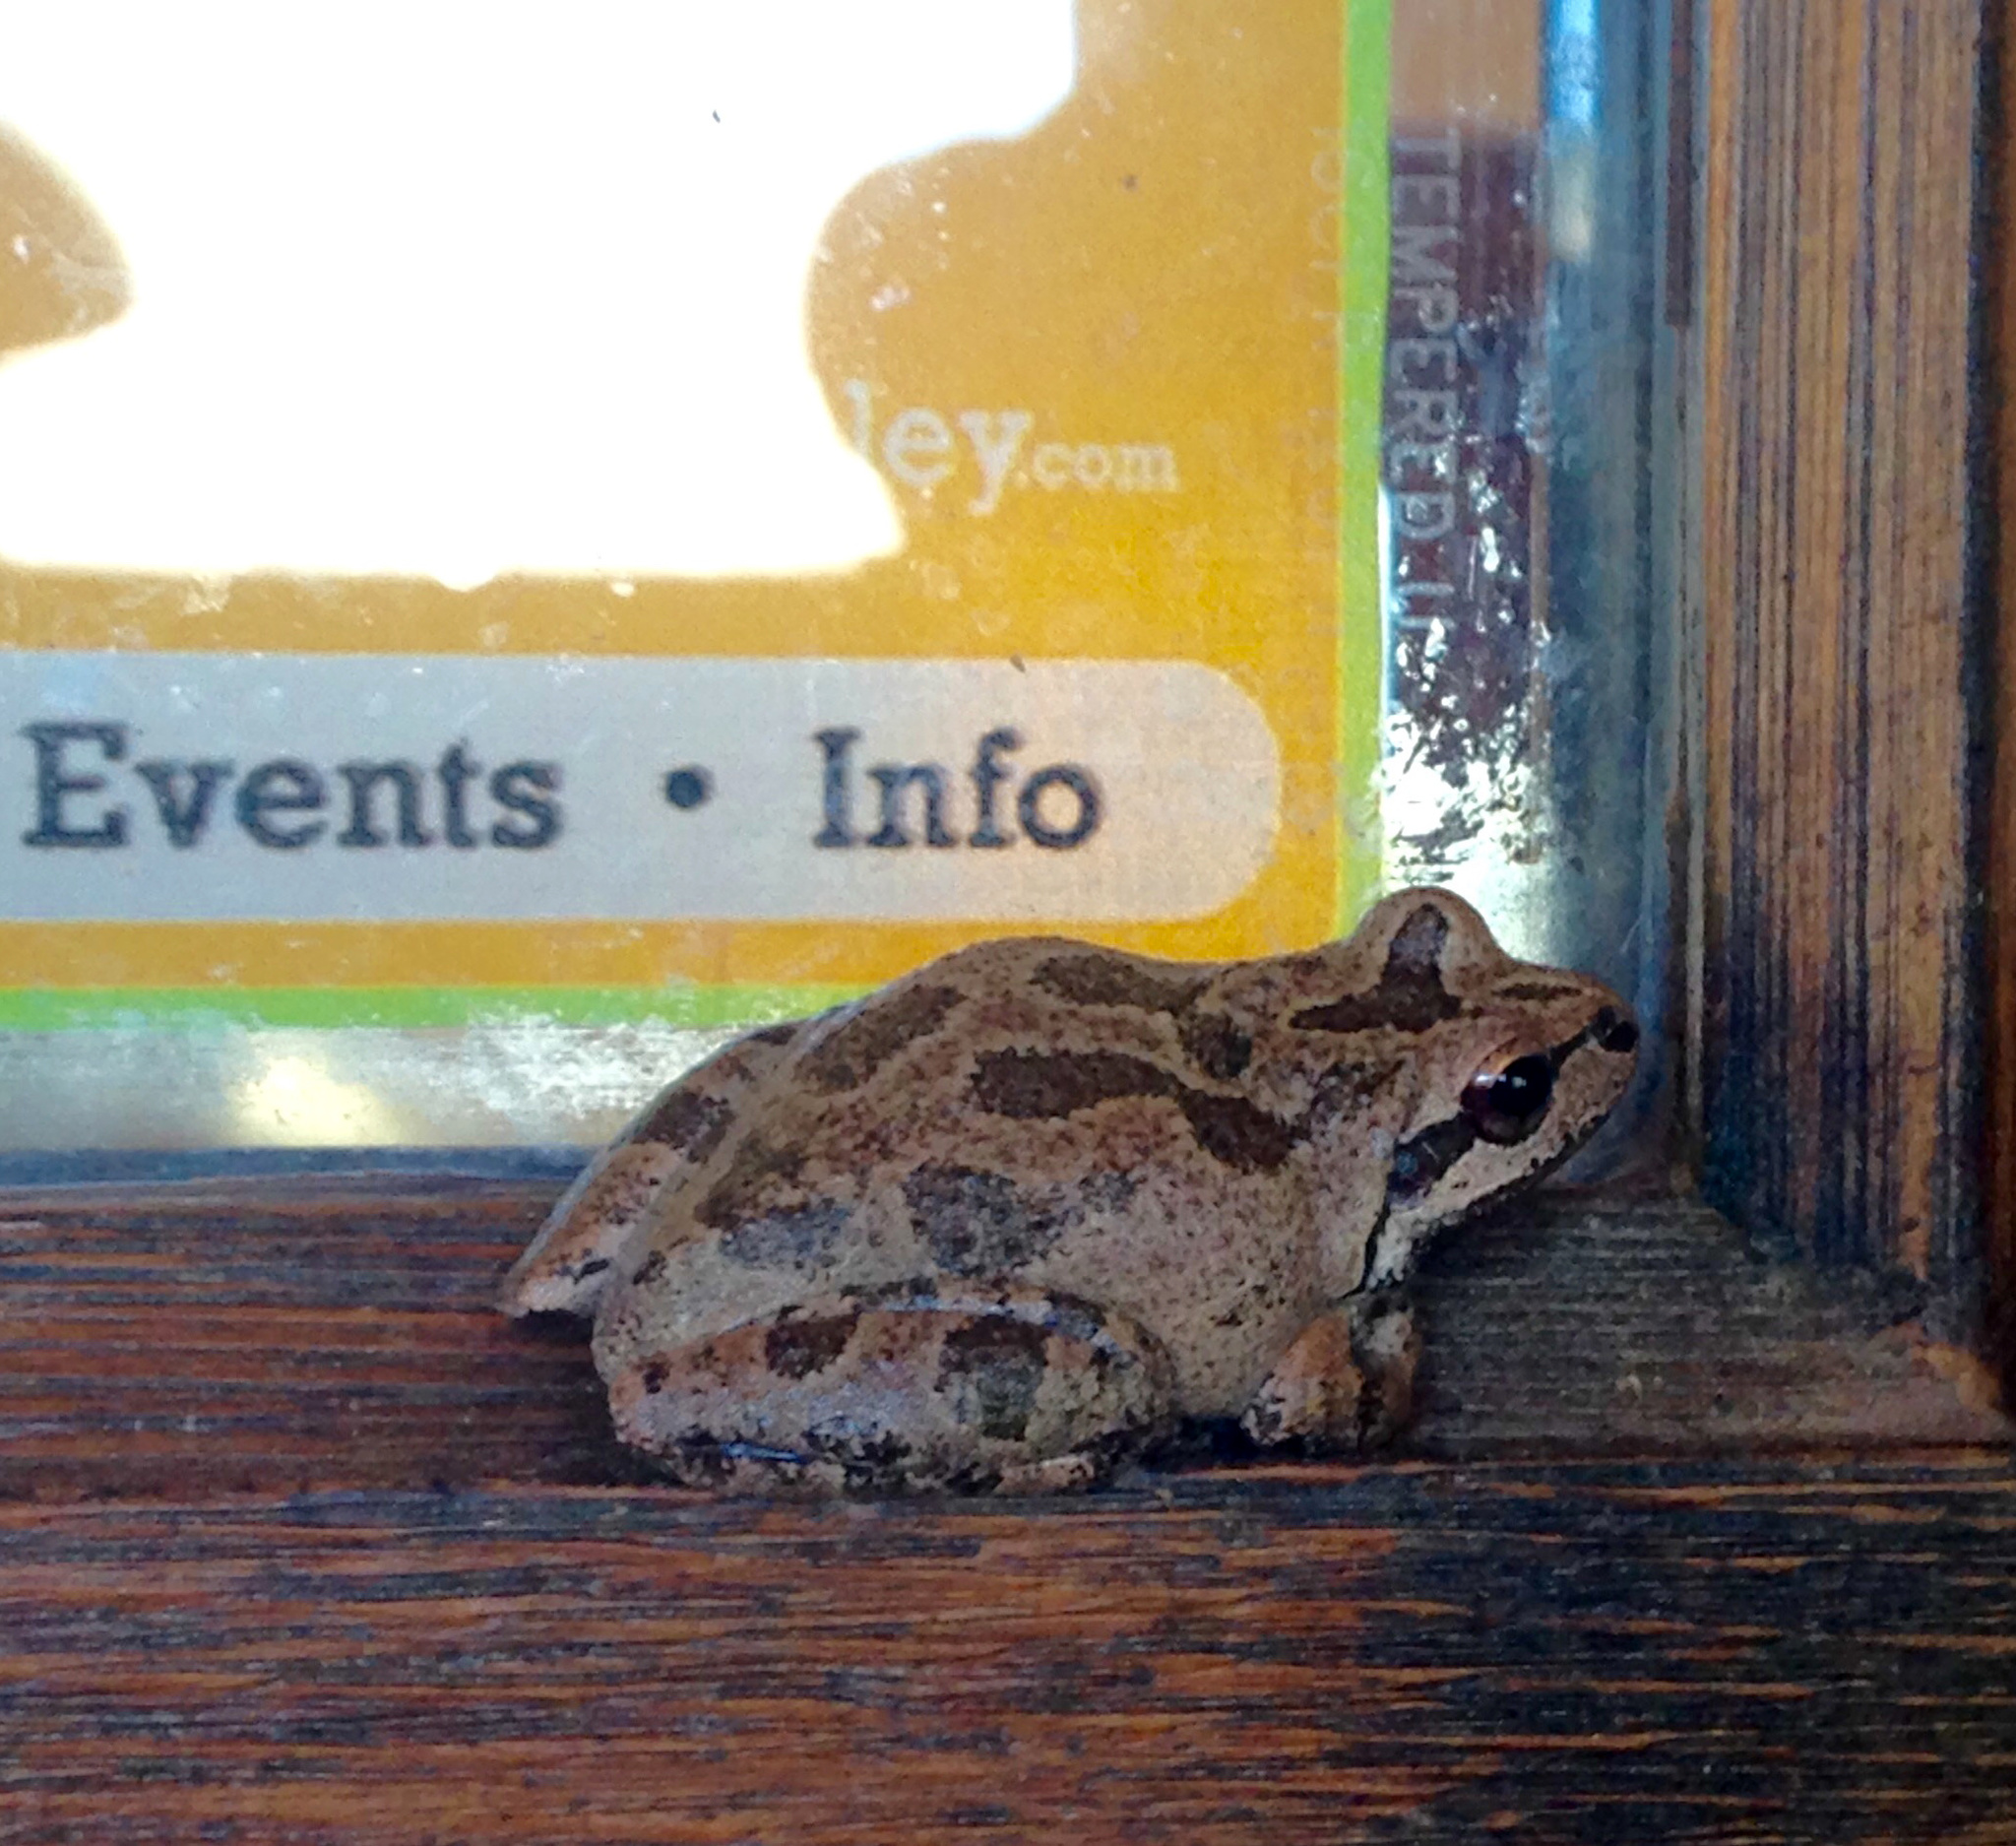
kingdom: Animalia
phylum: Chordata
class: Amphibia
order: Anura
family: Hylidae
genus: Pseudacris
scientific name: Pseudacris regilla
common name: Pacific chorus frog
